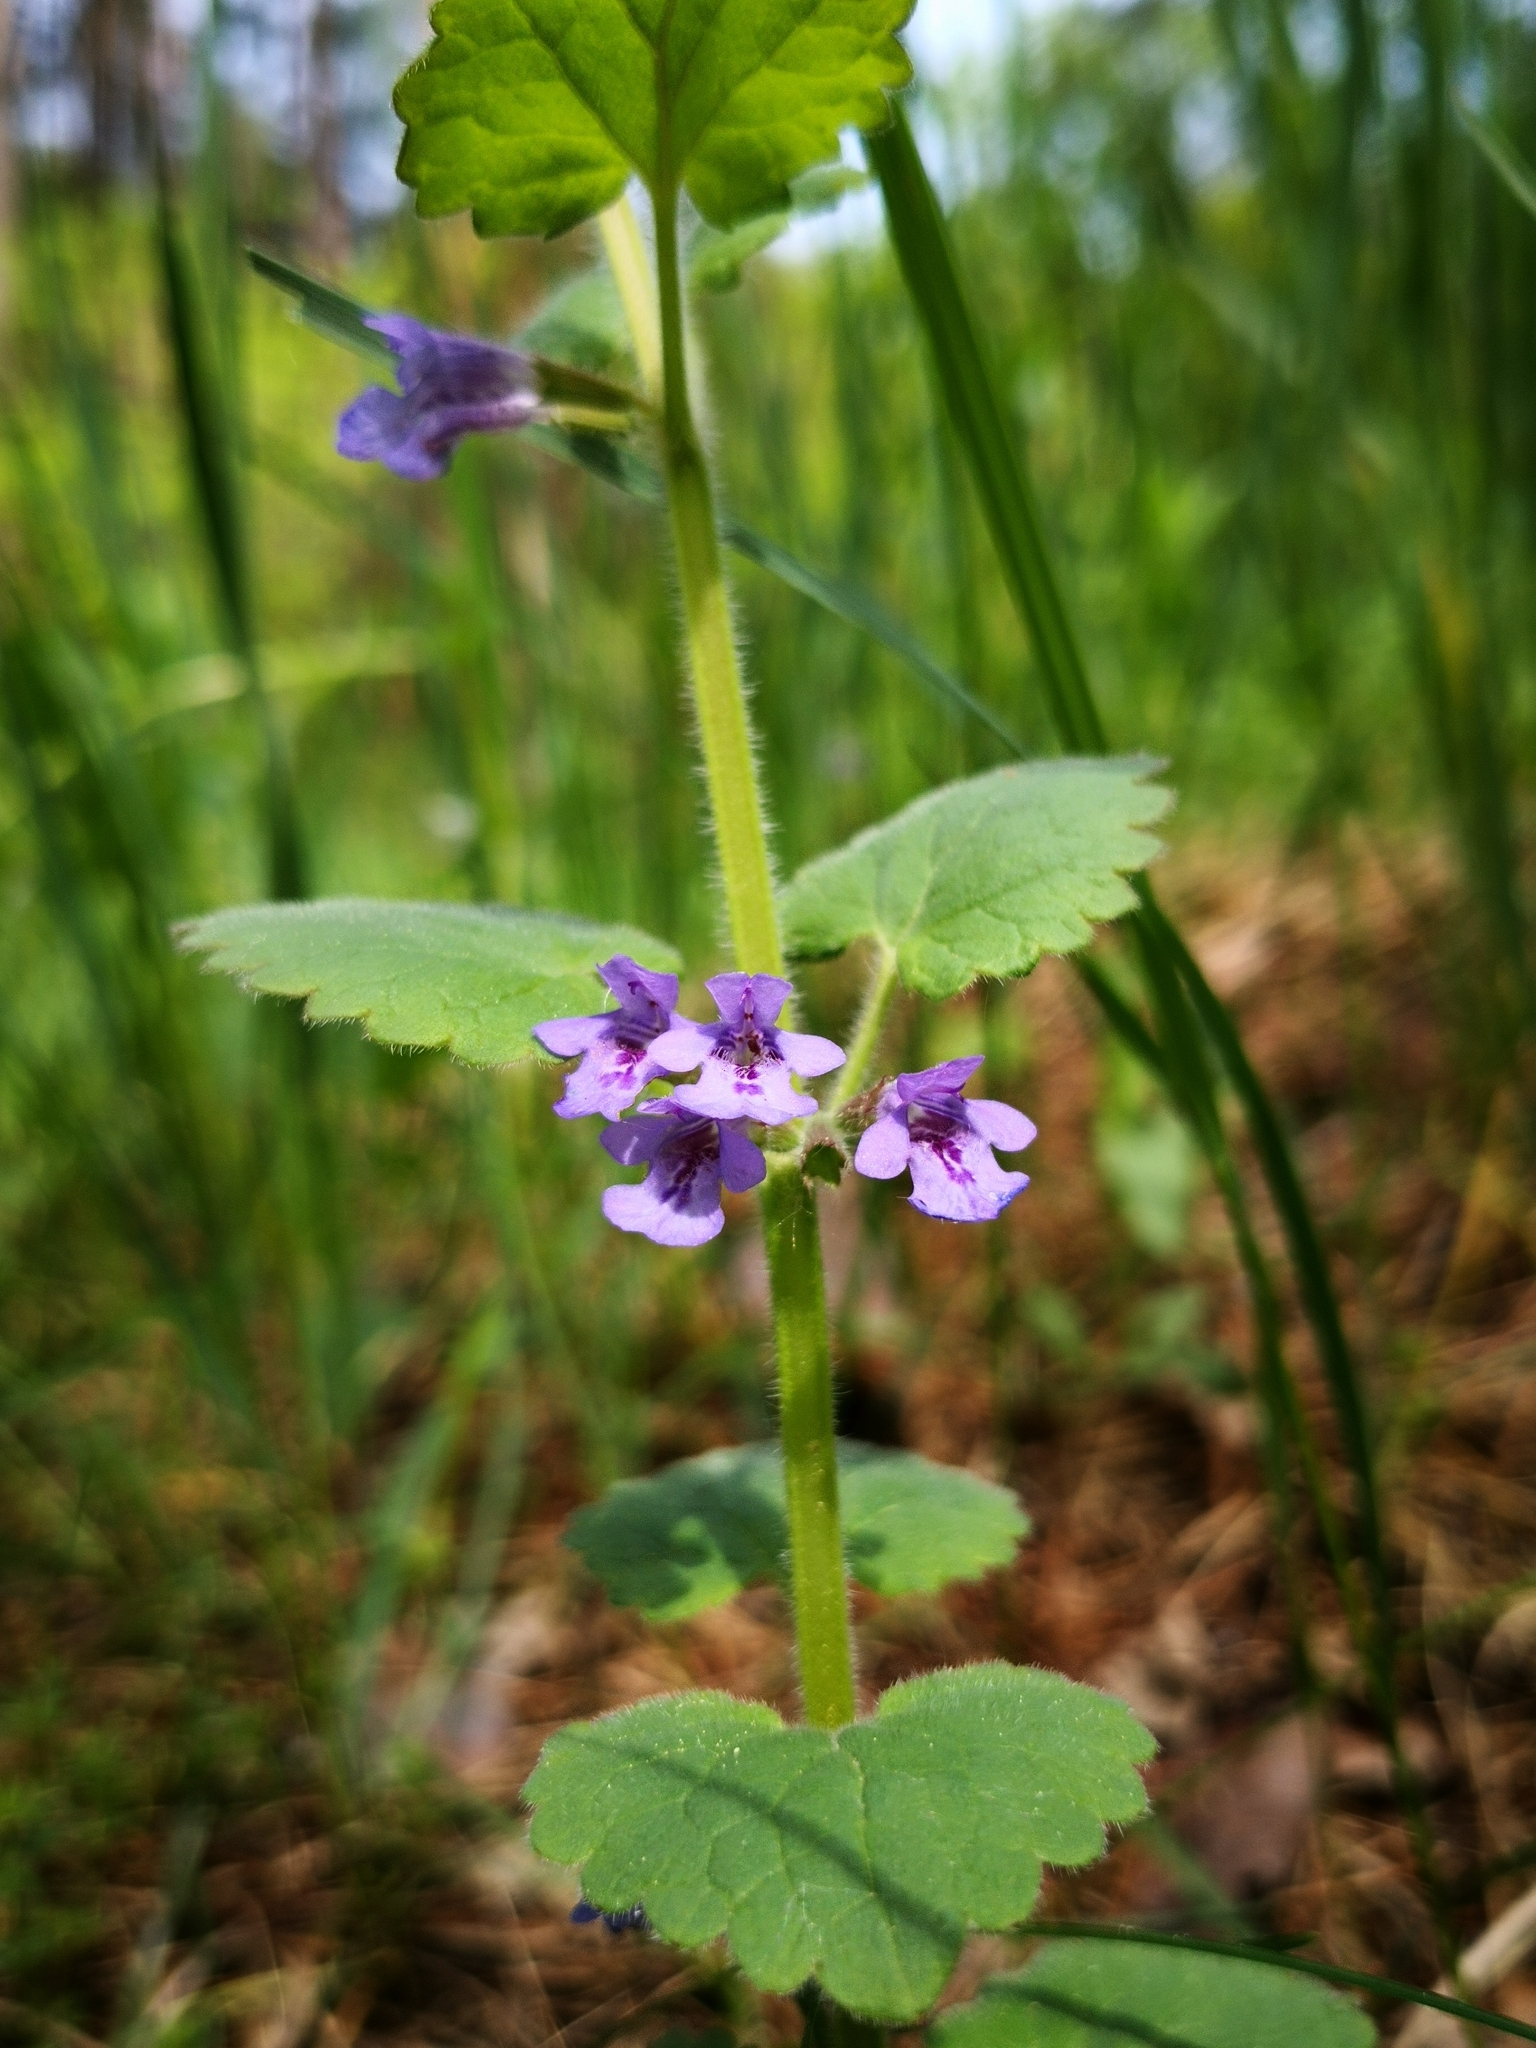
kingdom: Plantae
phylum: Tracheophyta
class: Magnoliopsida
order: Lamiales
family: Lamiaceae
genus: Glechoma
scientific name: Glechoma hederacea
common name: Ground ivy
